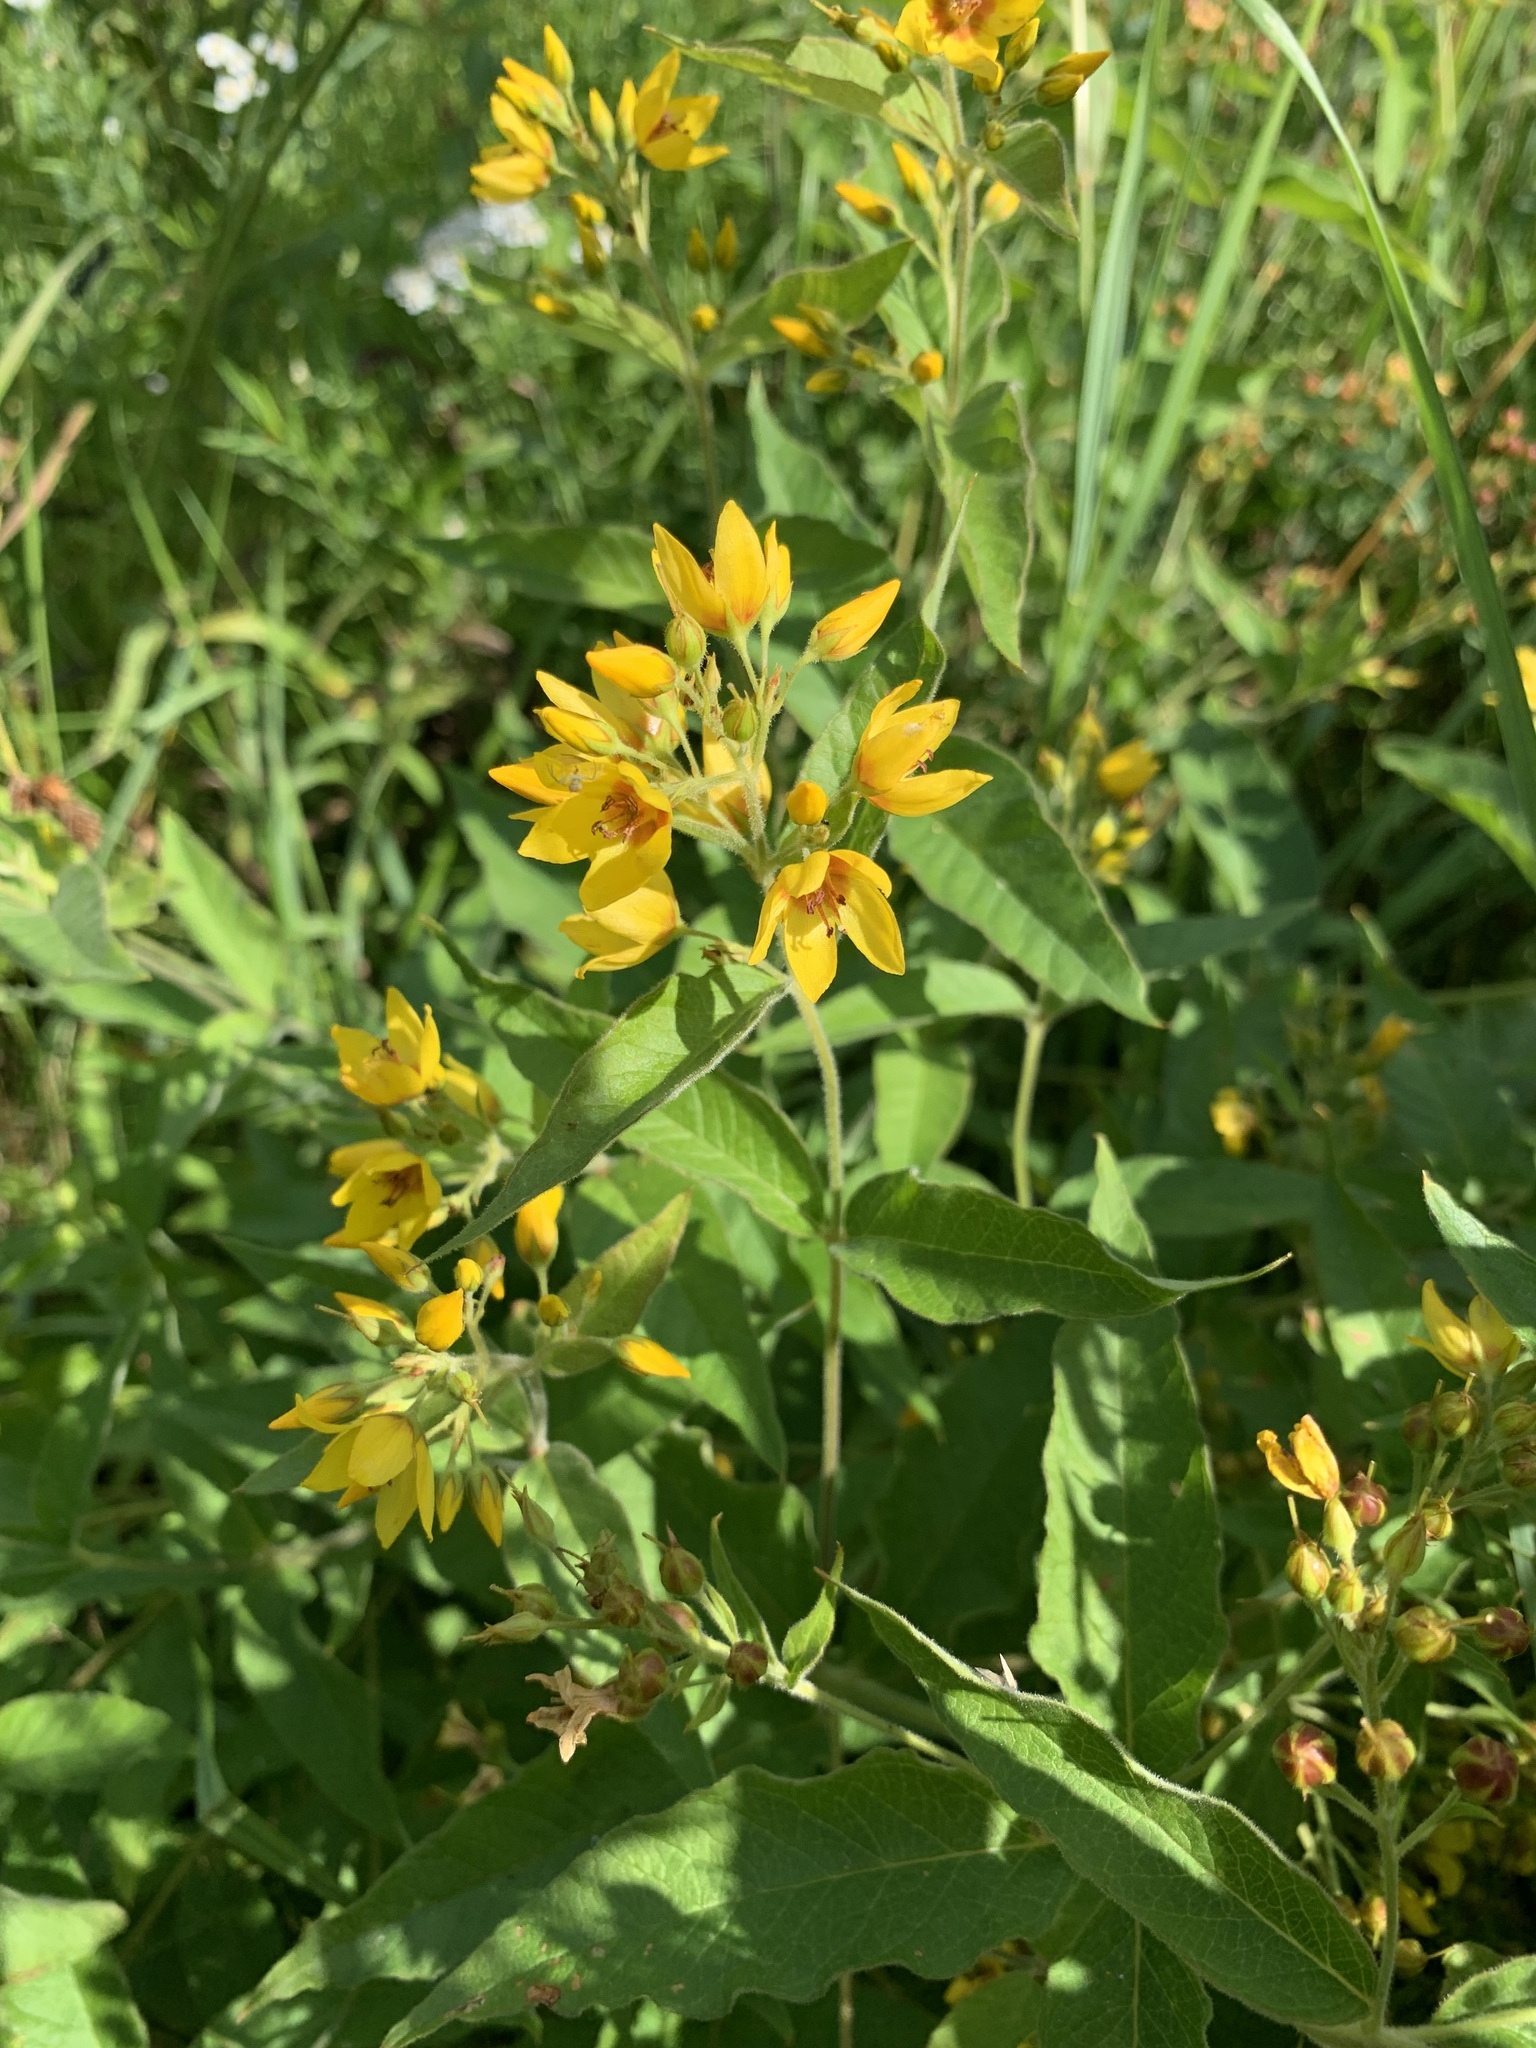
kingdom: Plantae
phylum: Tracheophyta
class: Magnoliopsida
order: Ericales
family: Primulaceae
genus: Lysimachia
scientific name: Lysimachia vulgaris
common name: Yellow loosestrife
